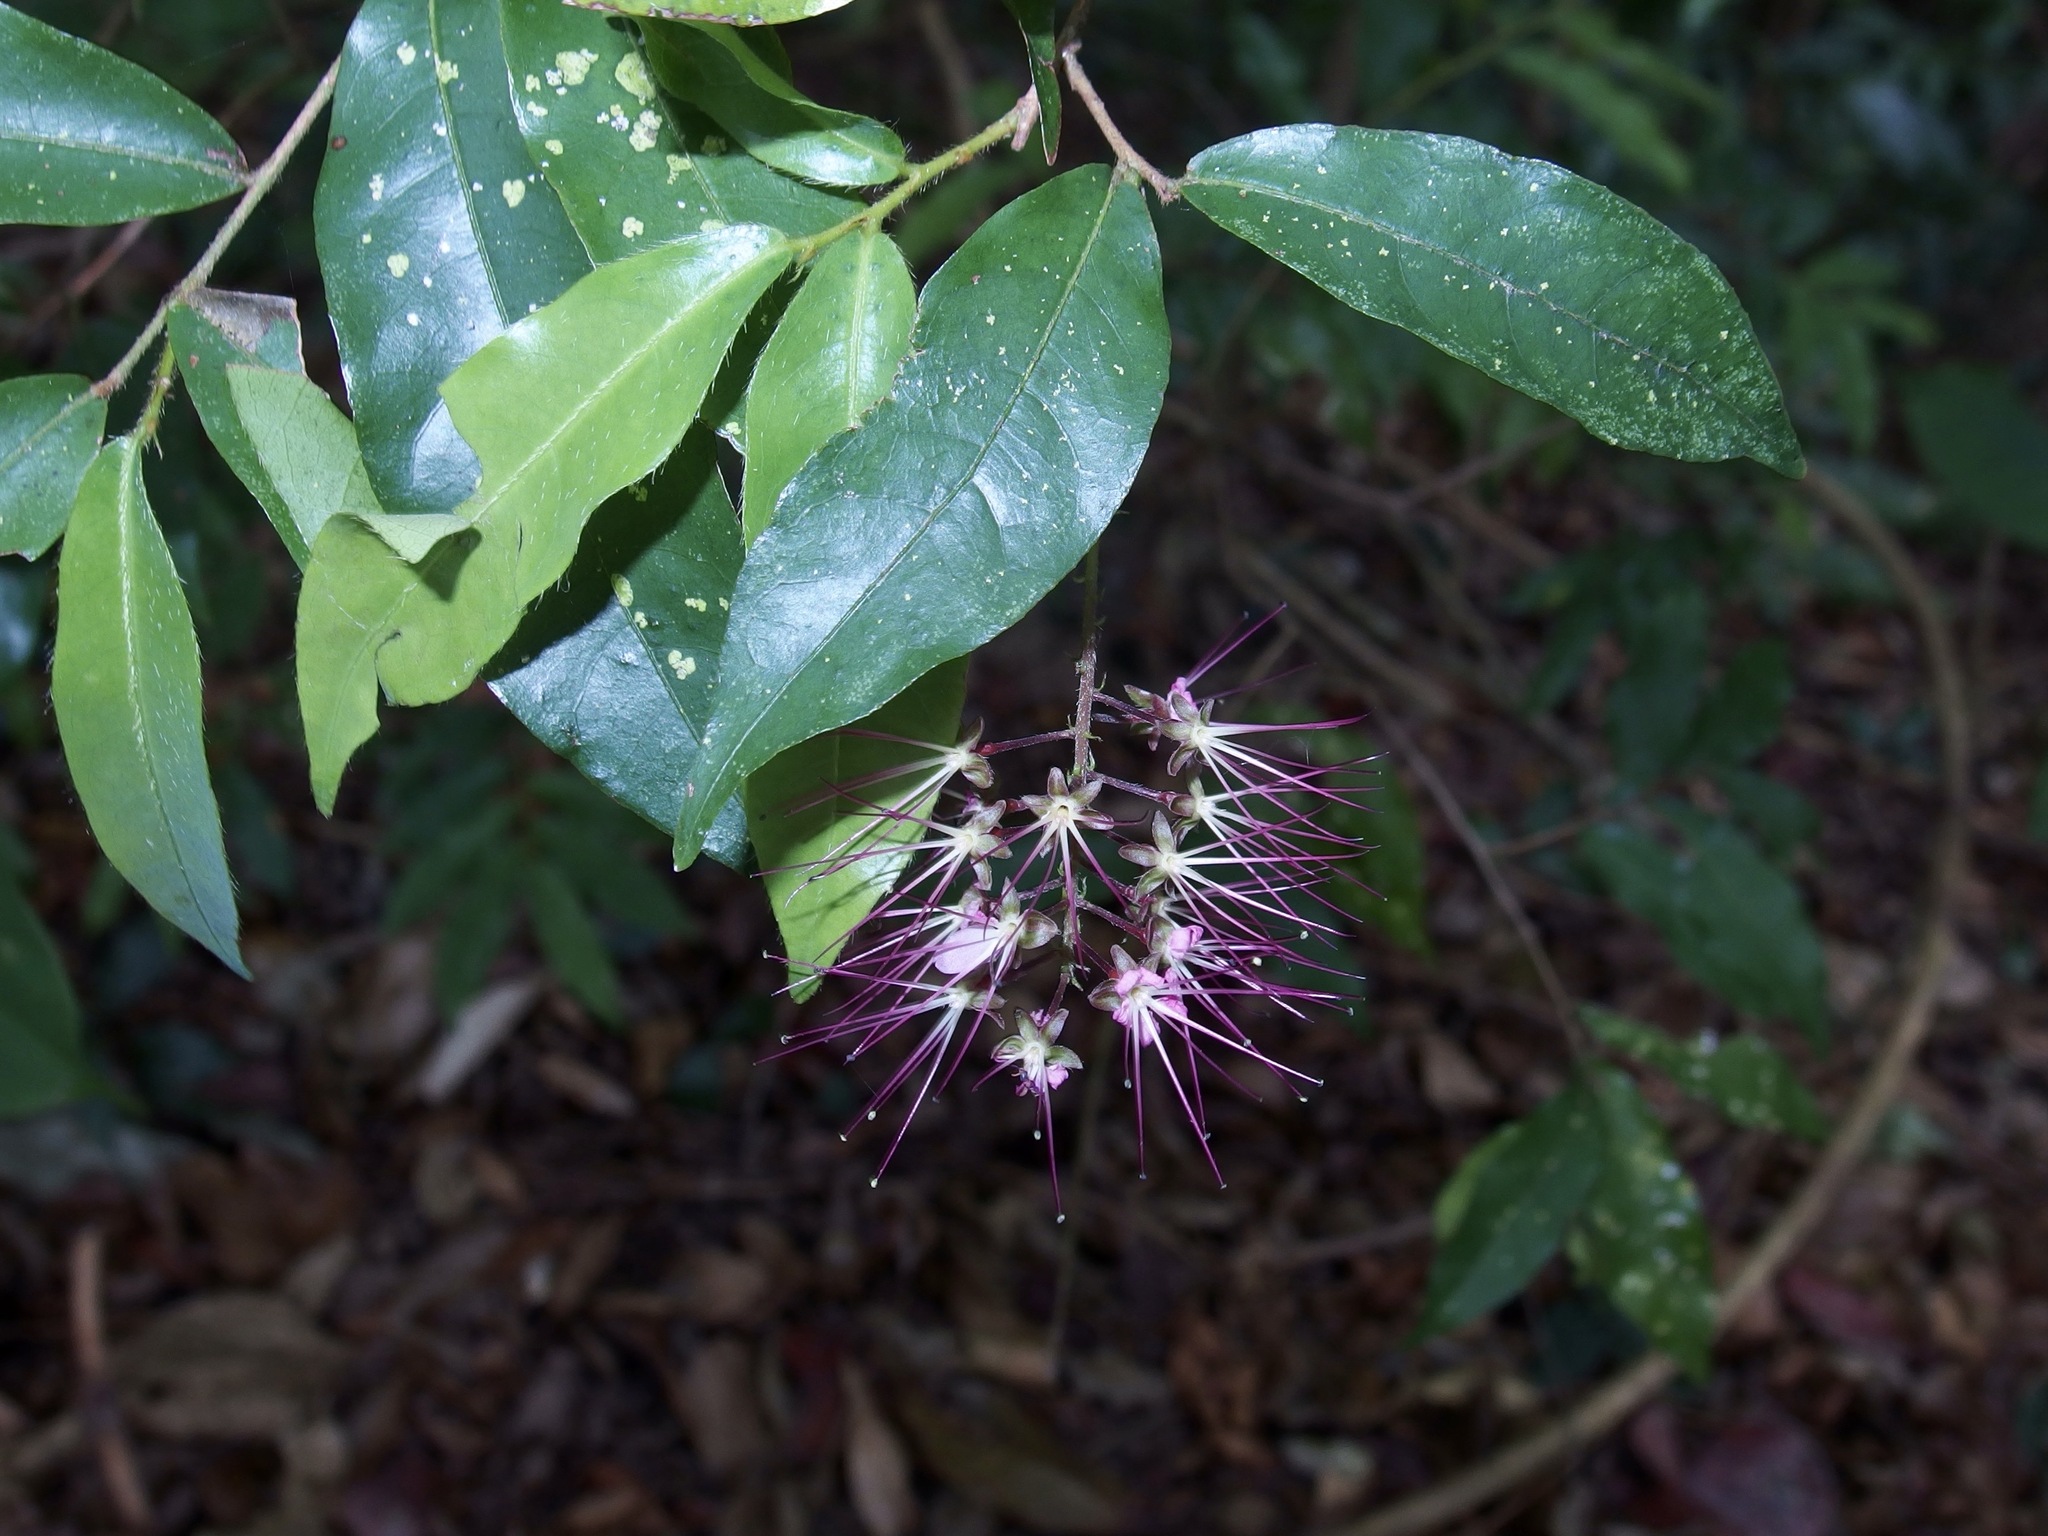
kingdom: Plantae
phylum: Tracheophyta
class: Magnoliopsida
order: Malpighiales
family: Chrysobalanaceae
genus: Hirtella
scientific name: Hirtella racemosa
